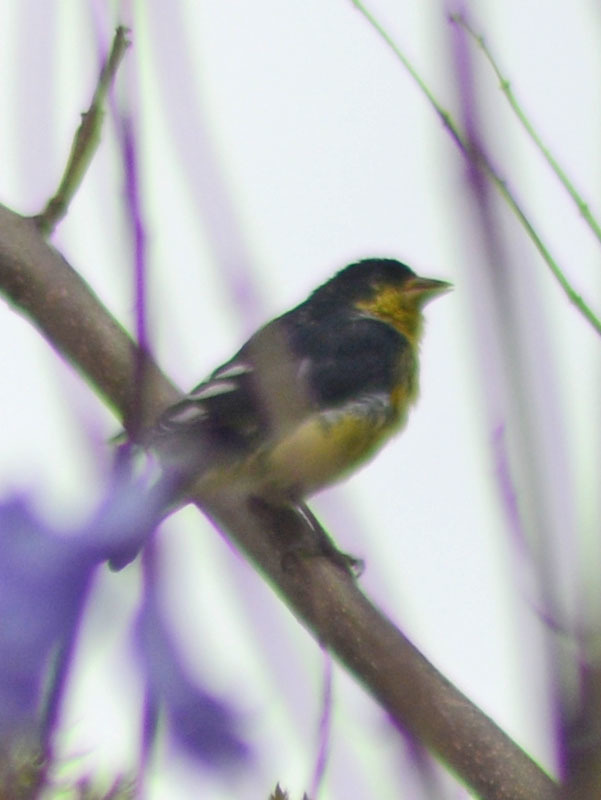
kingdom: Animalia
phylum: Chordata
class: Aves
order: Passeriformes
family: Fringillidae
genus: Spinus
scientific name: Spinus psaltria
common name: Lesser goldfinch
